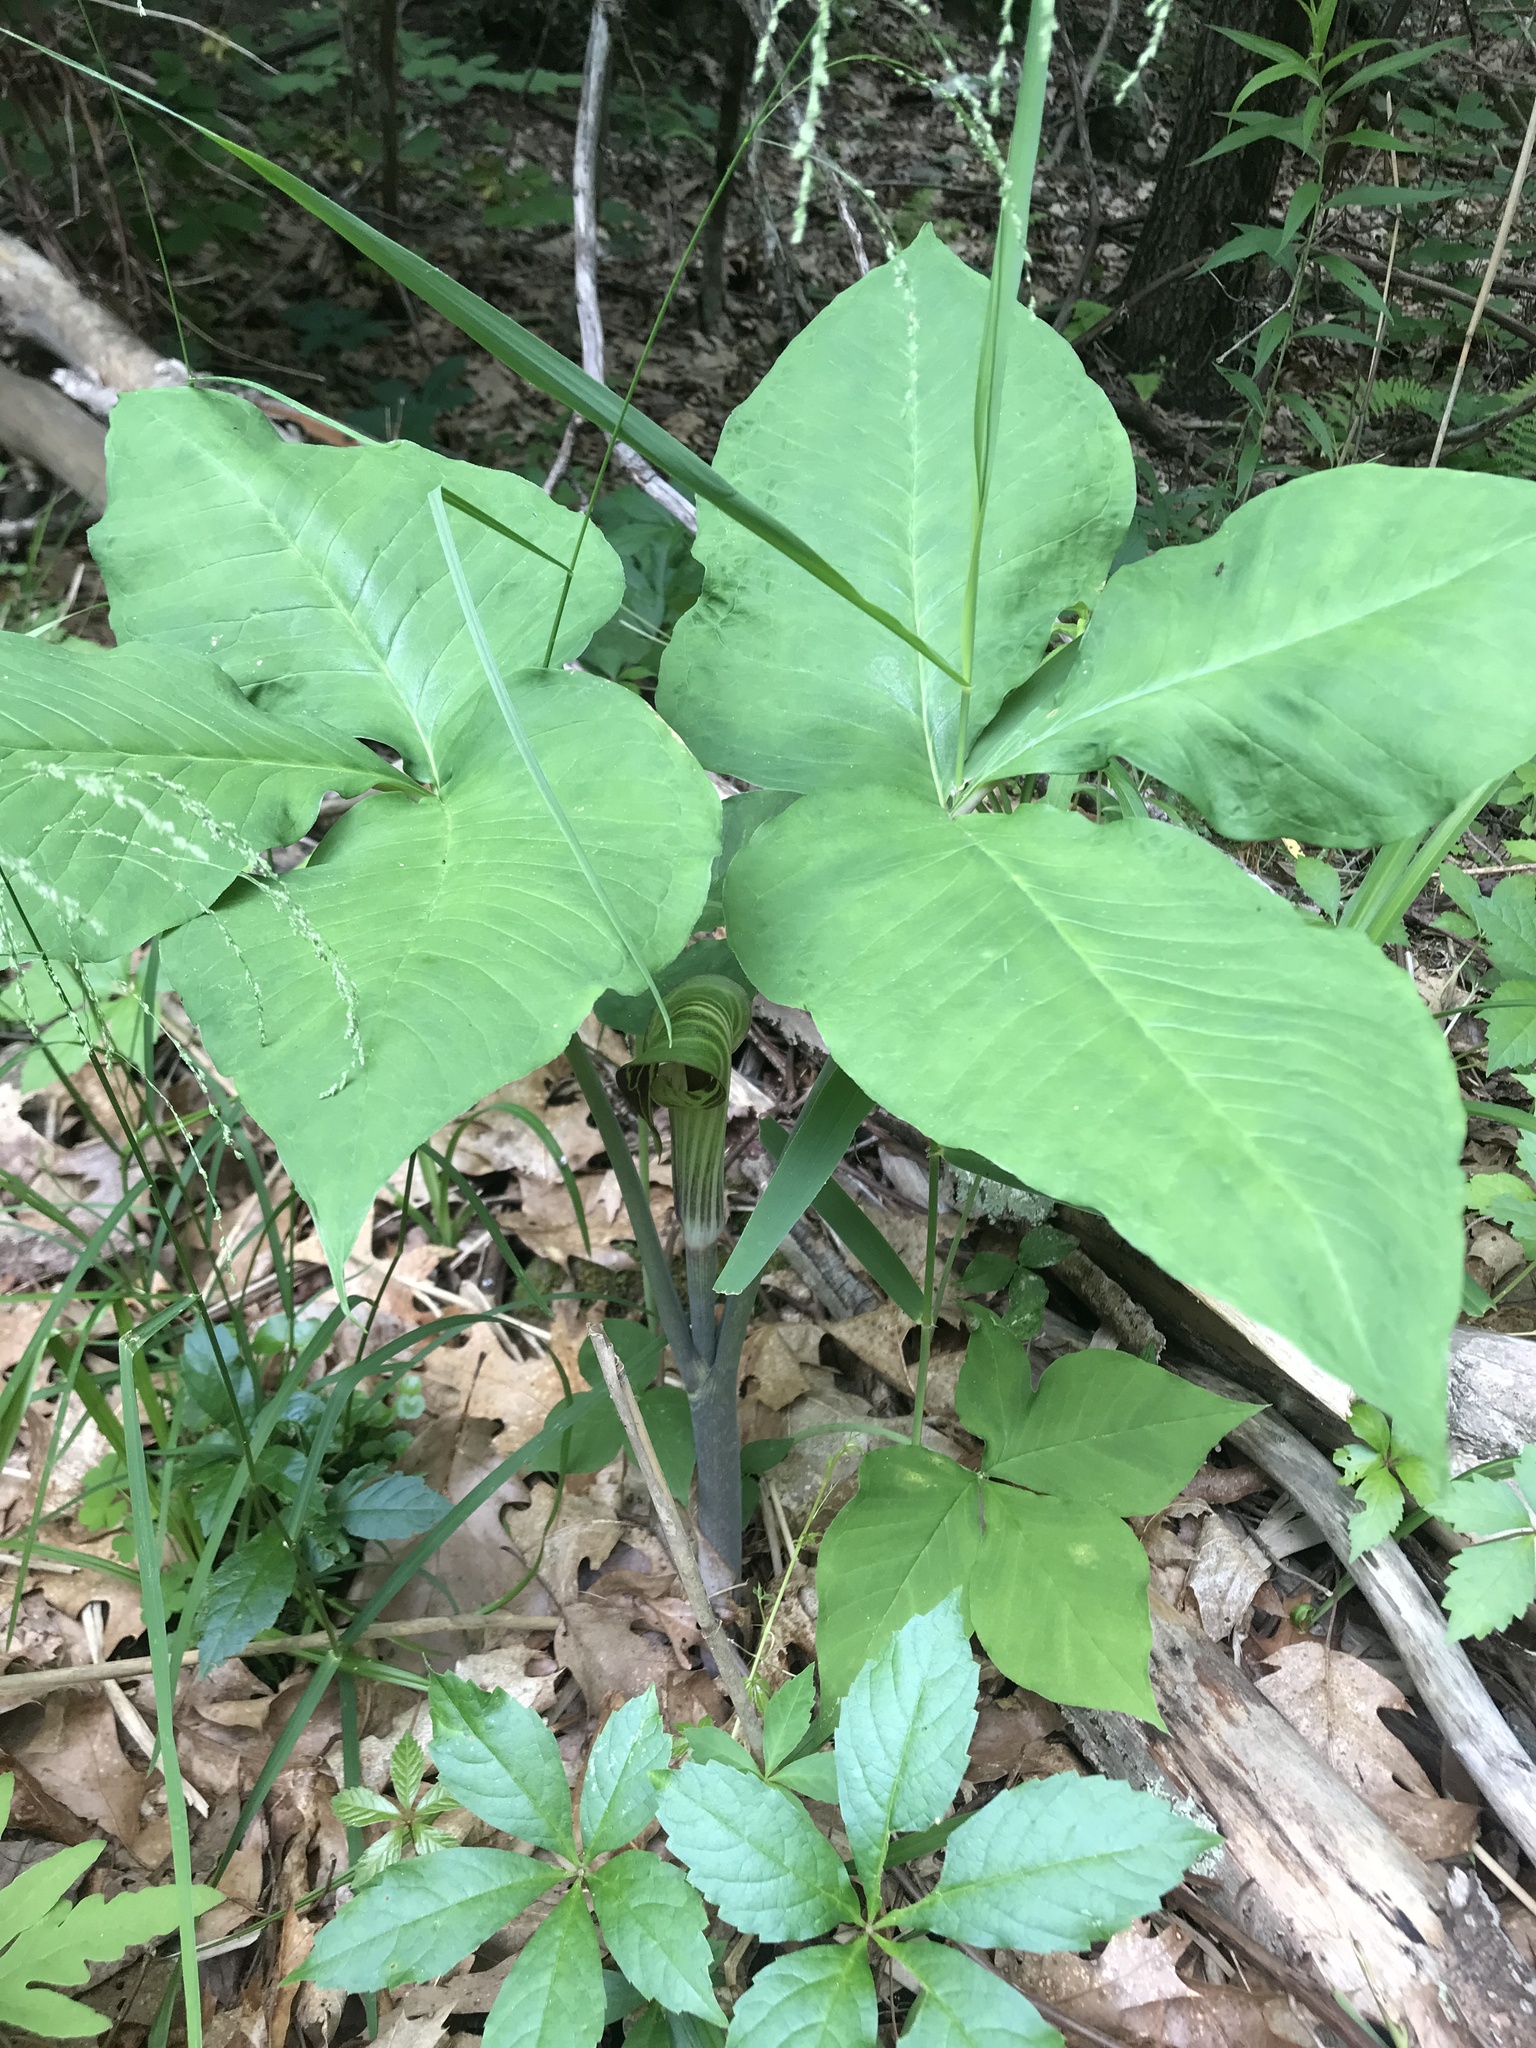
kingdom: Plantae
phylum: Tracheophyta
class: Liliopsida
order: Alismatales
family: Araceae
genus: Arisaema
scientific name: Arisaema triphyllum
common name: Jack-in-the-pulpit
